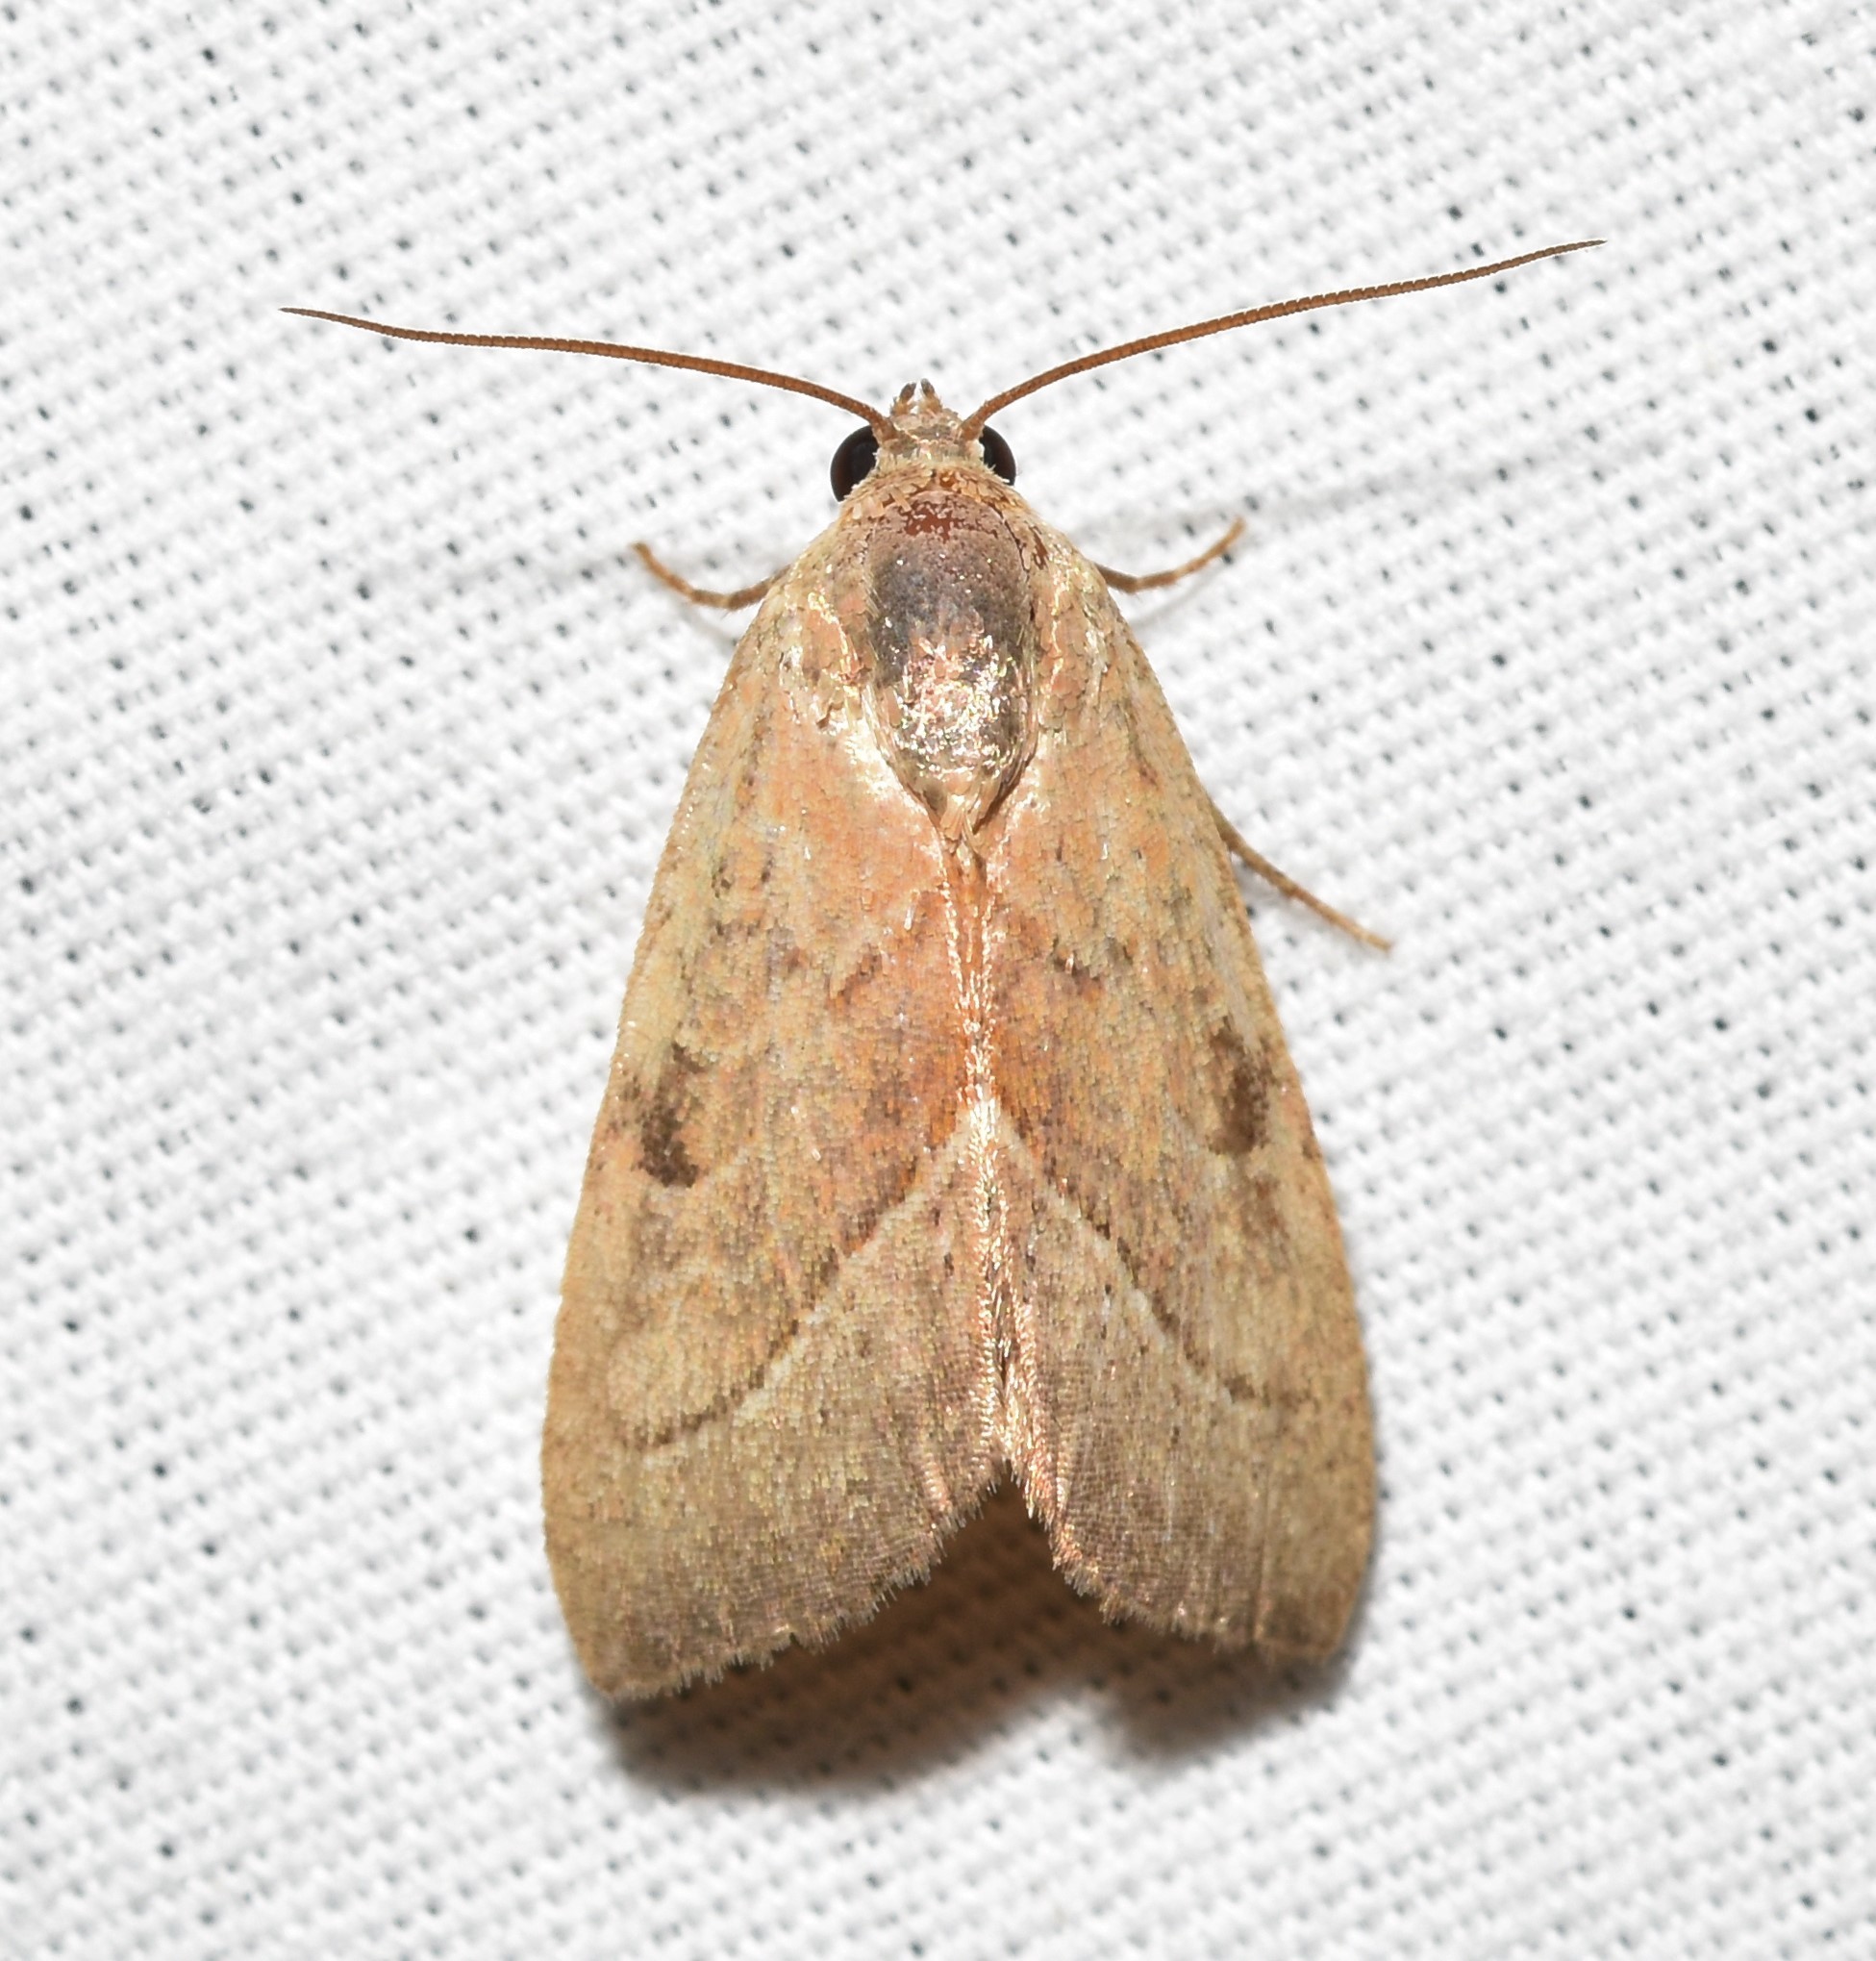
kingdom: Animalia
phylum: Arthropoda
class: Insecta
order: Lepidoptera
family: Noctuidae
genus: Galgula
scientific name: Galgula partita
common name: Wedgeling
